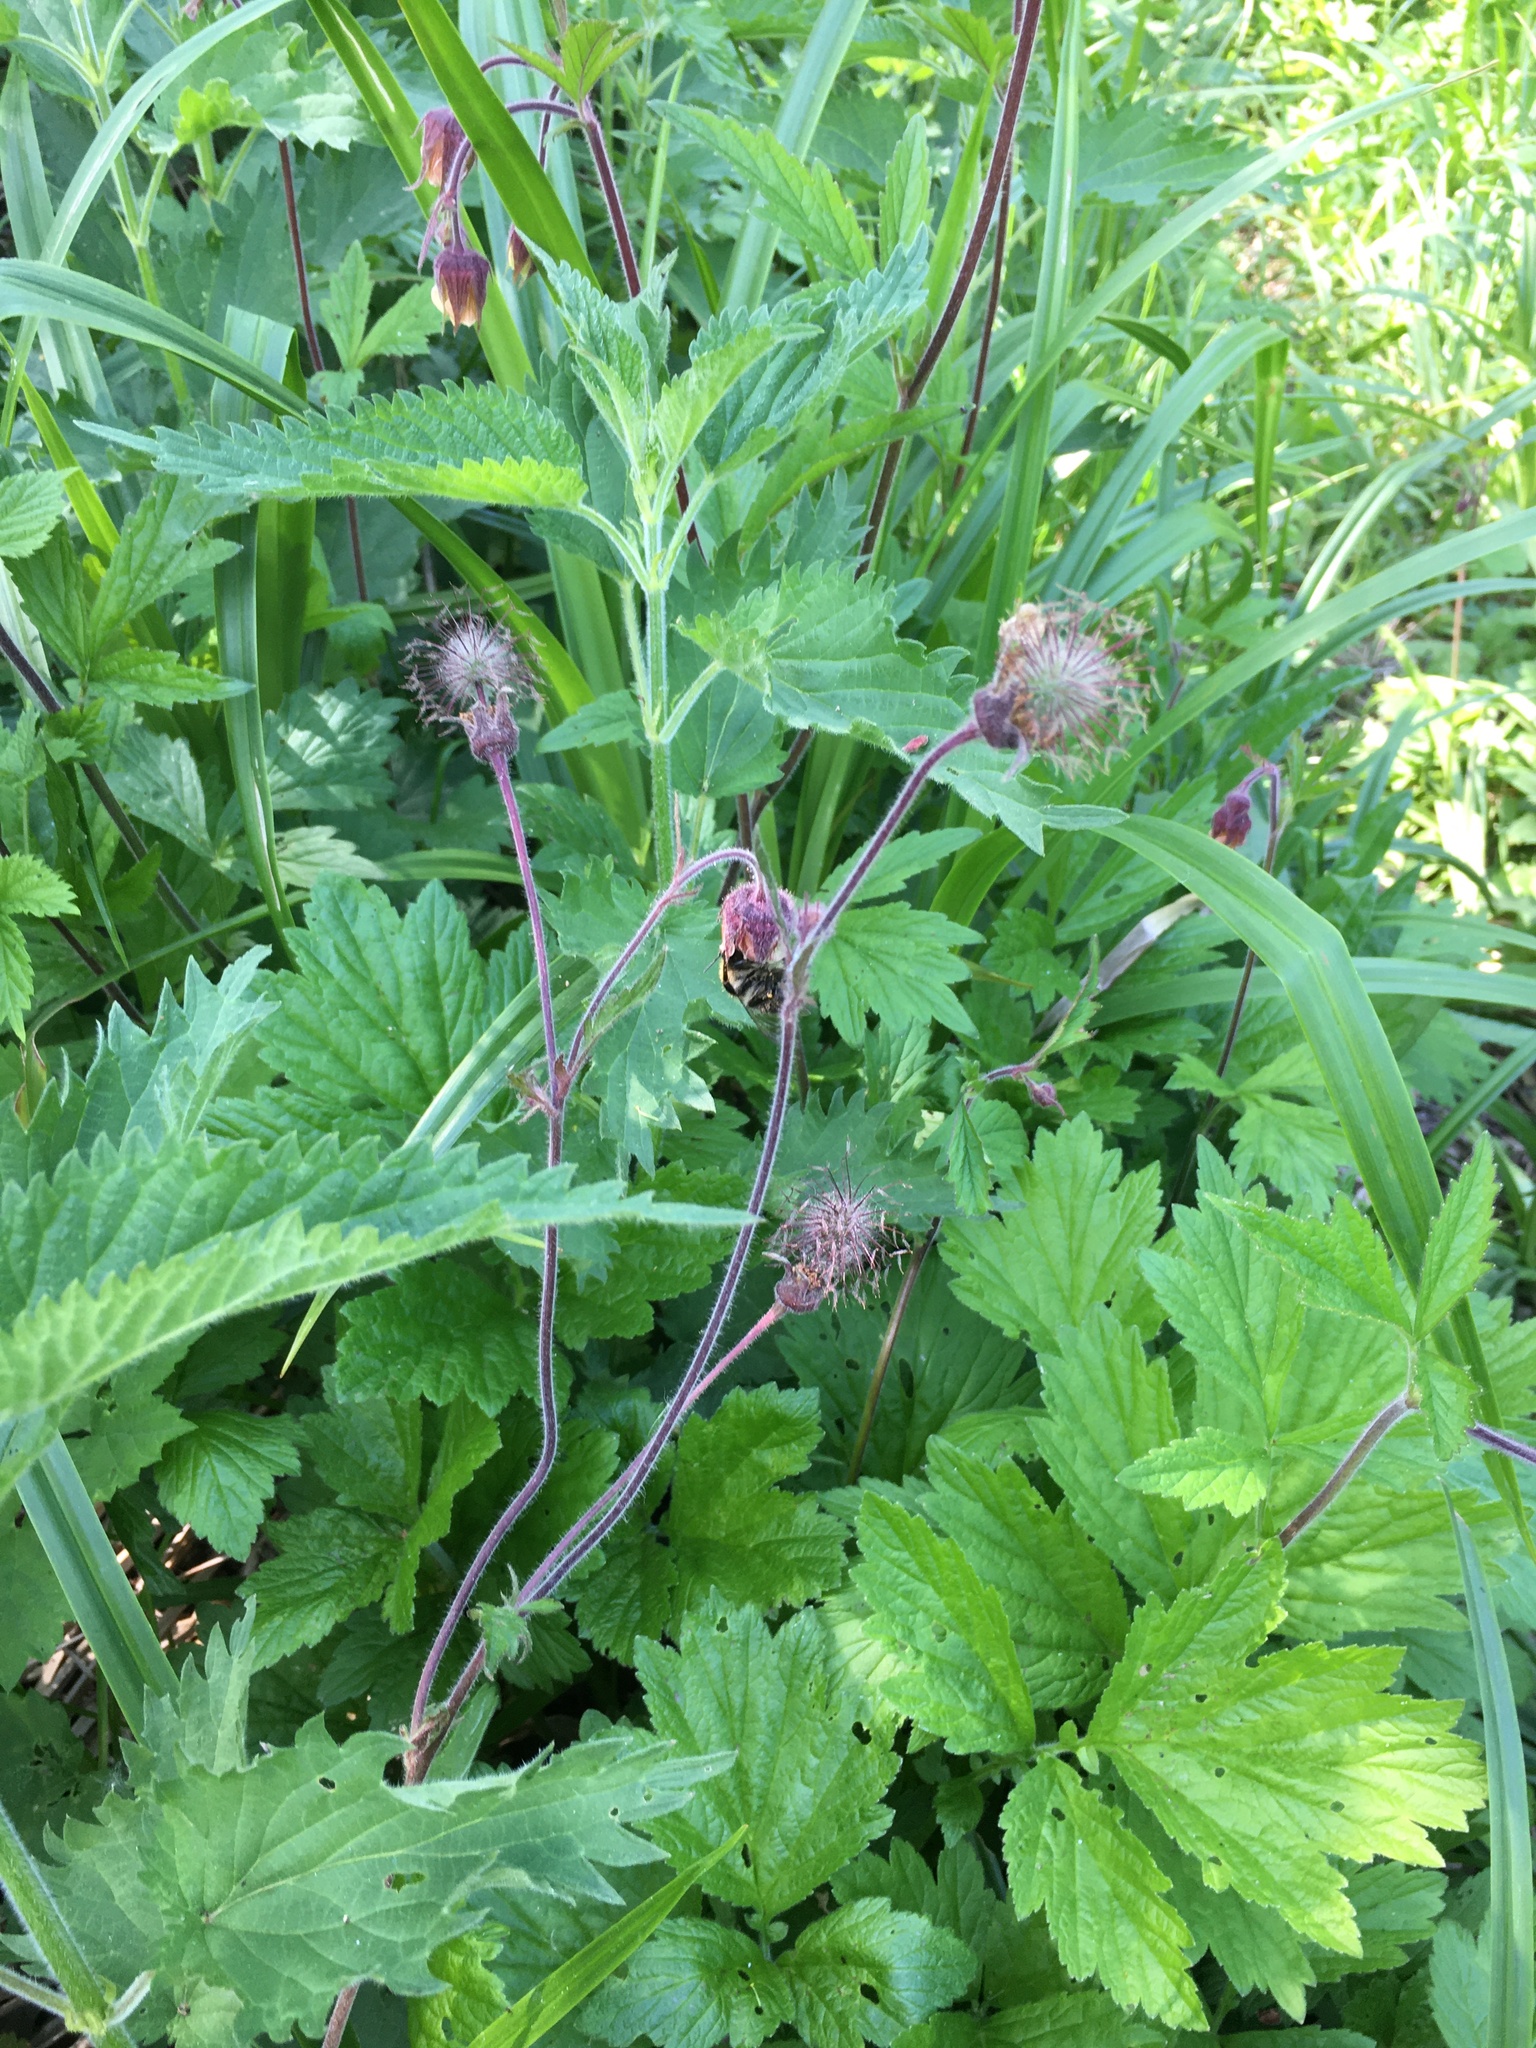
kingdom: Plantae
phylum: Tracheophyta
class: Magnoliopsida
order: Rosales
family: Rosaceae
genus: Geum
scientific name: Geum rivale
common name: Water avens
